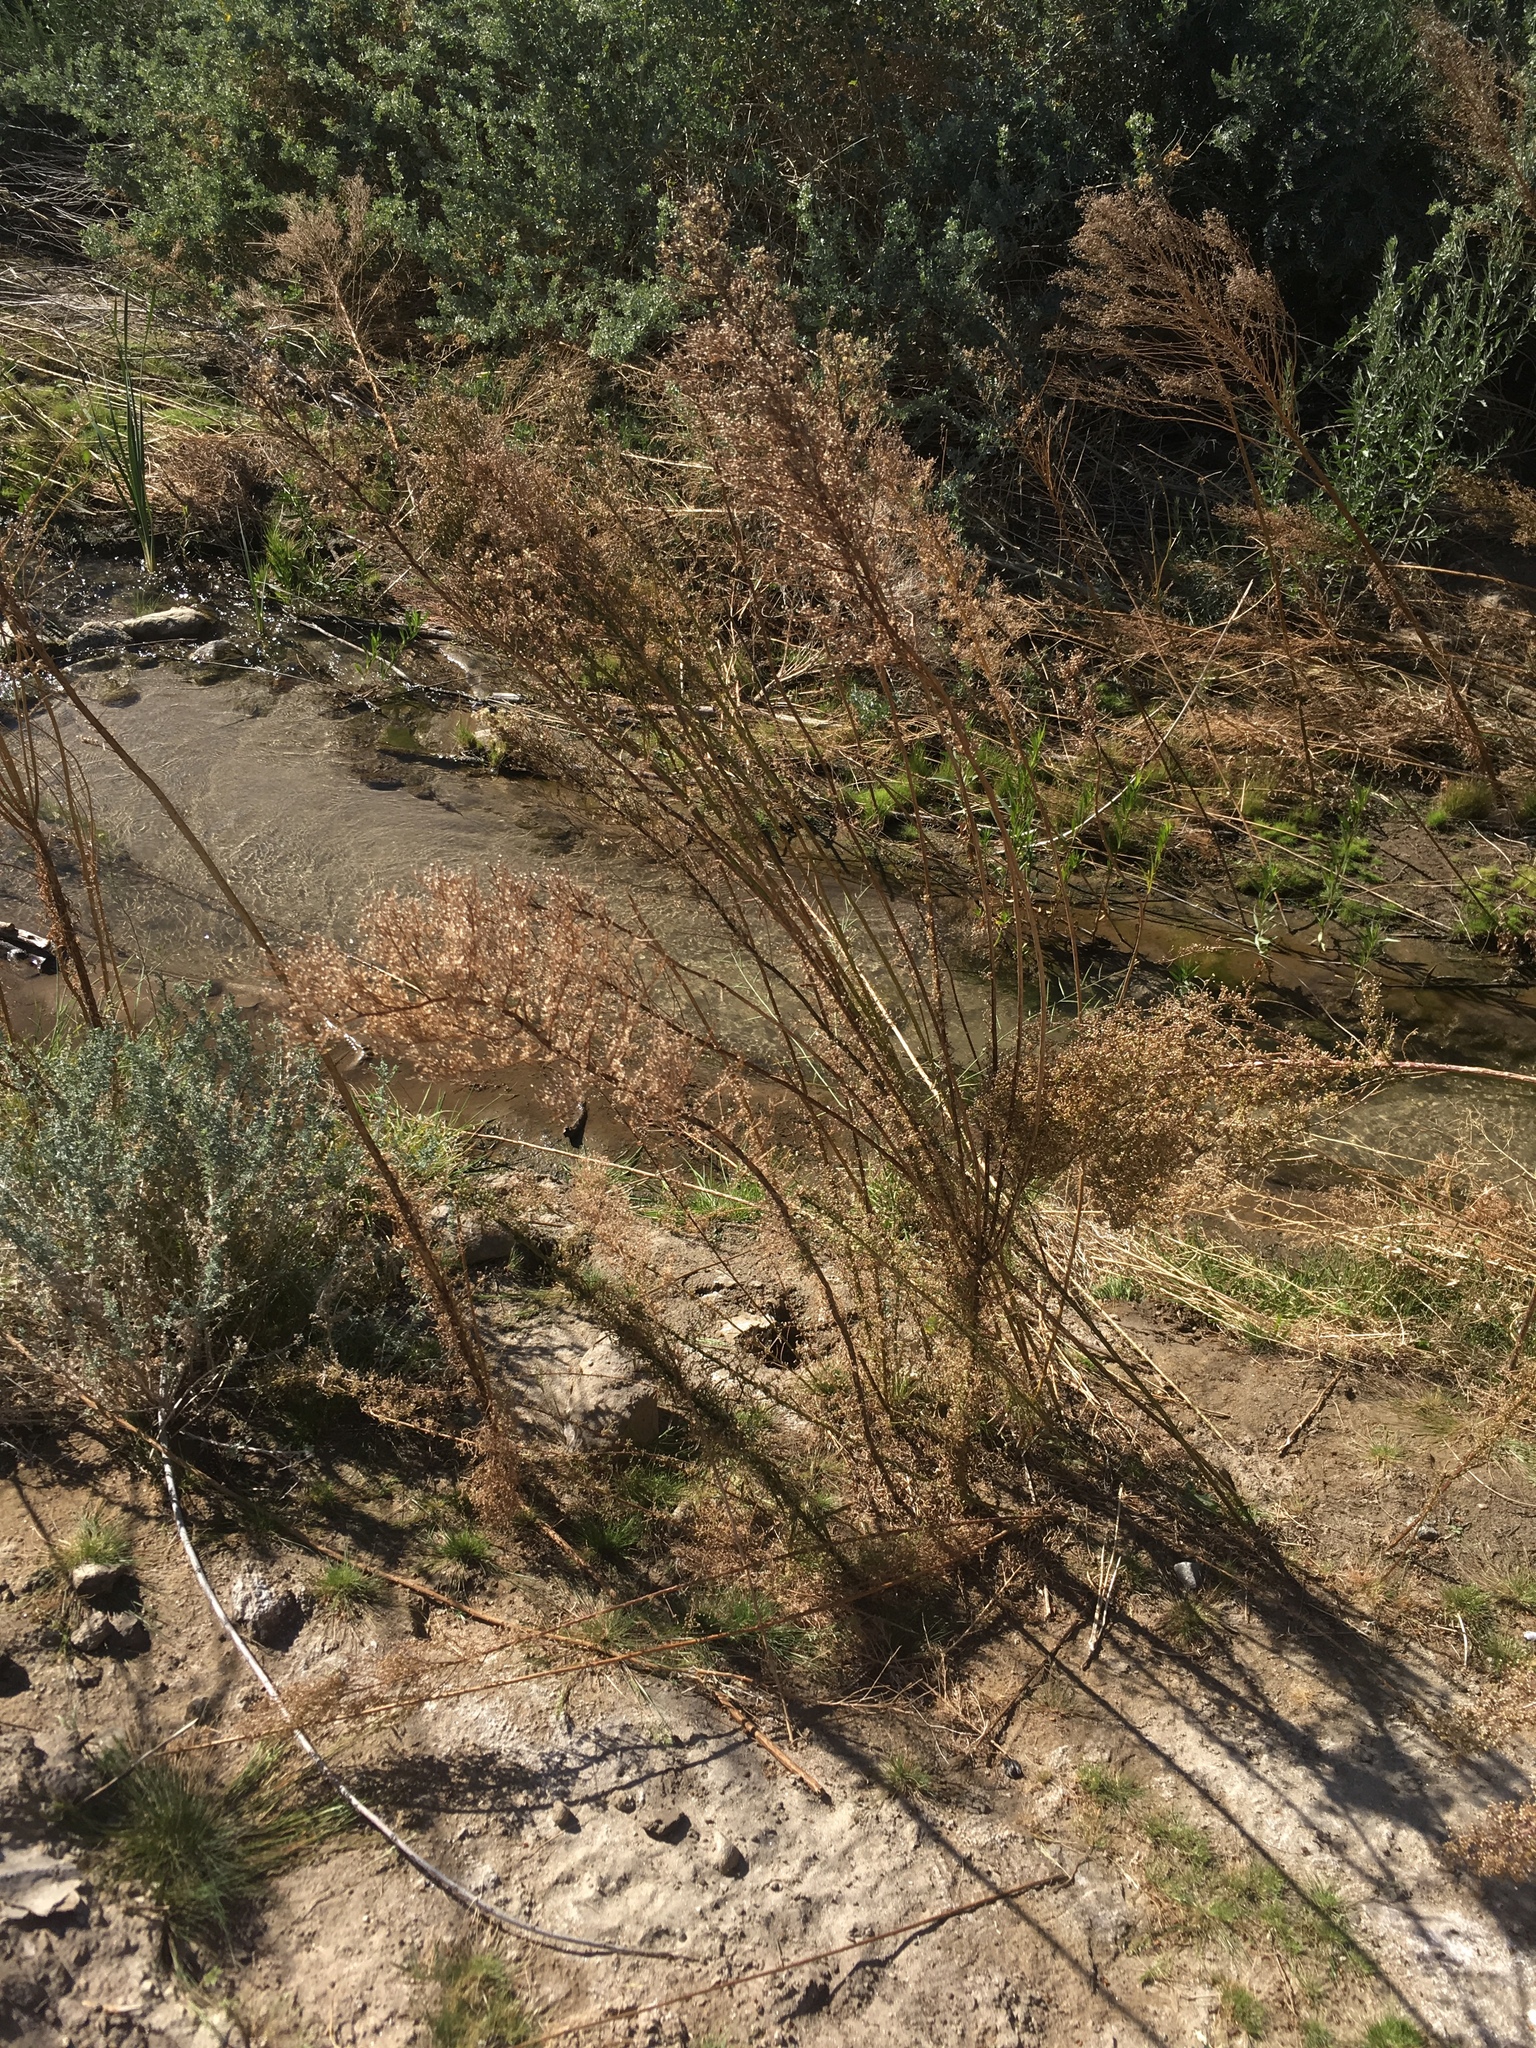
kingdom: Plantae
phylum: Tracheophyta
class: Magnoliopsida
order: Asterales
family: Asteraceae
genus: Erigeron
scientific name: Erigeron canadensis
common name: Canadian fleabane
